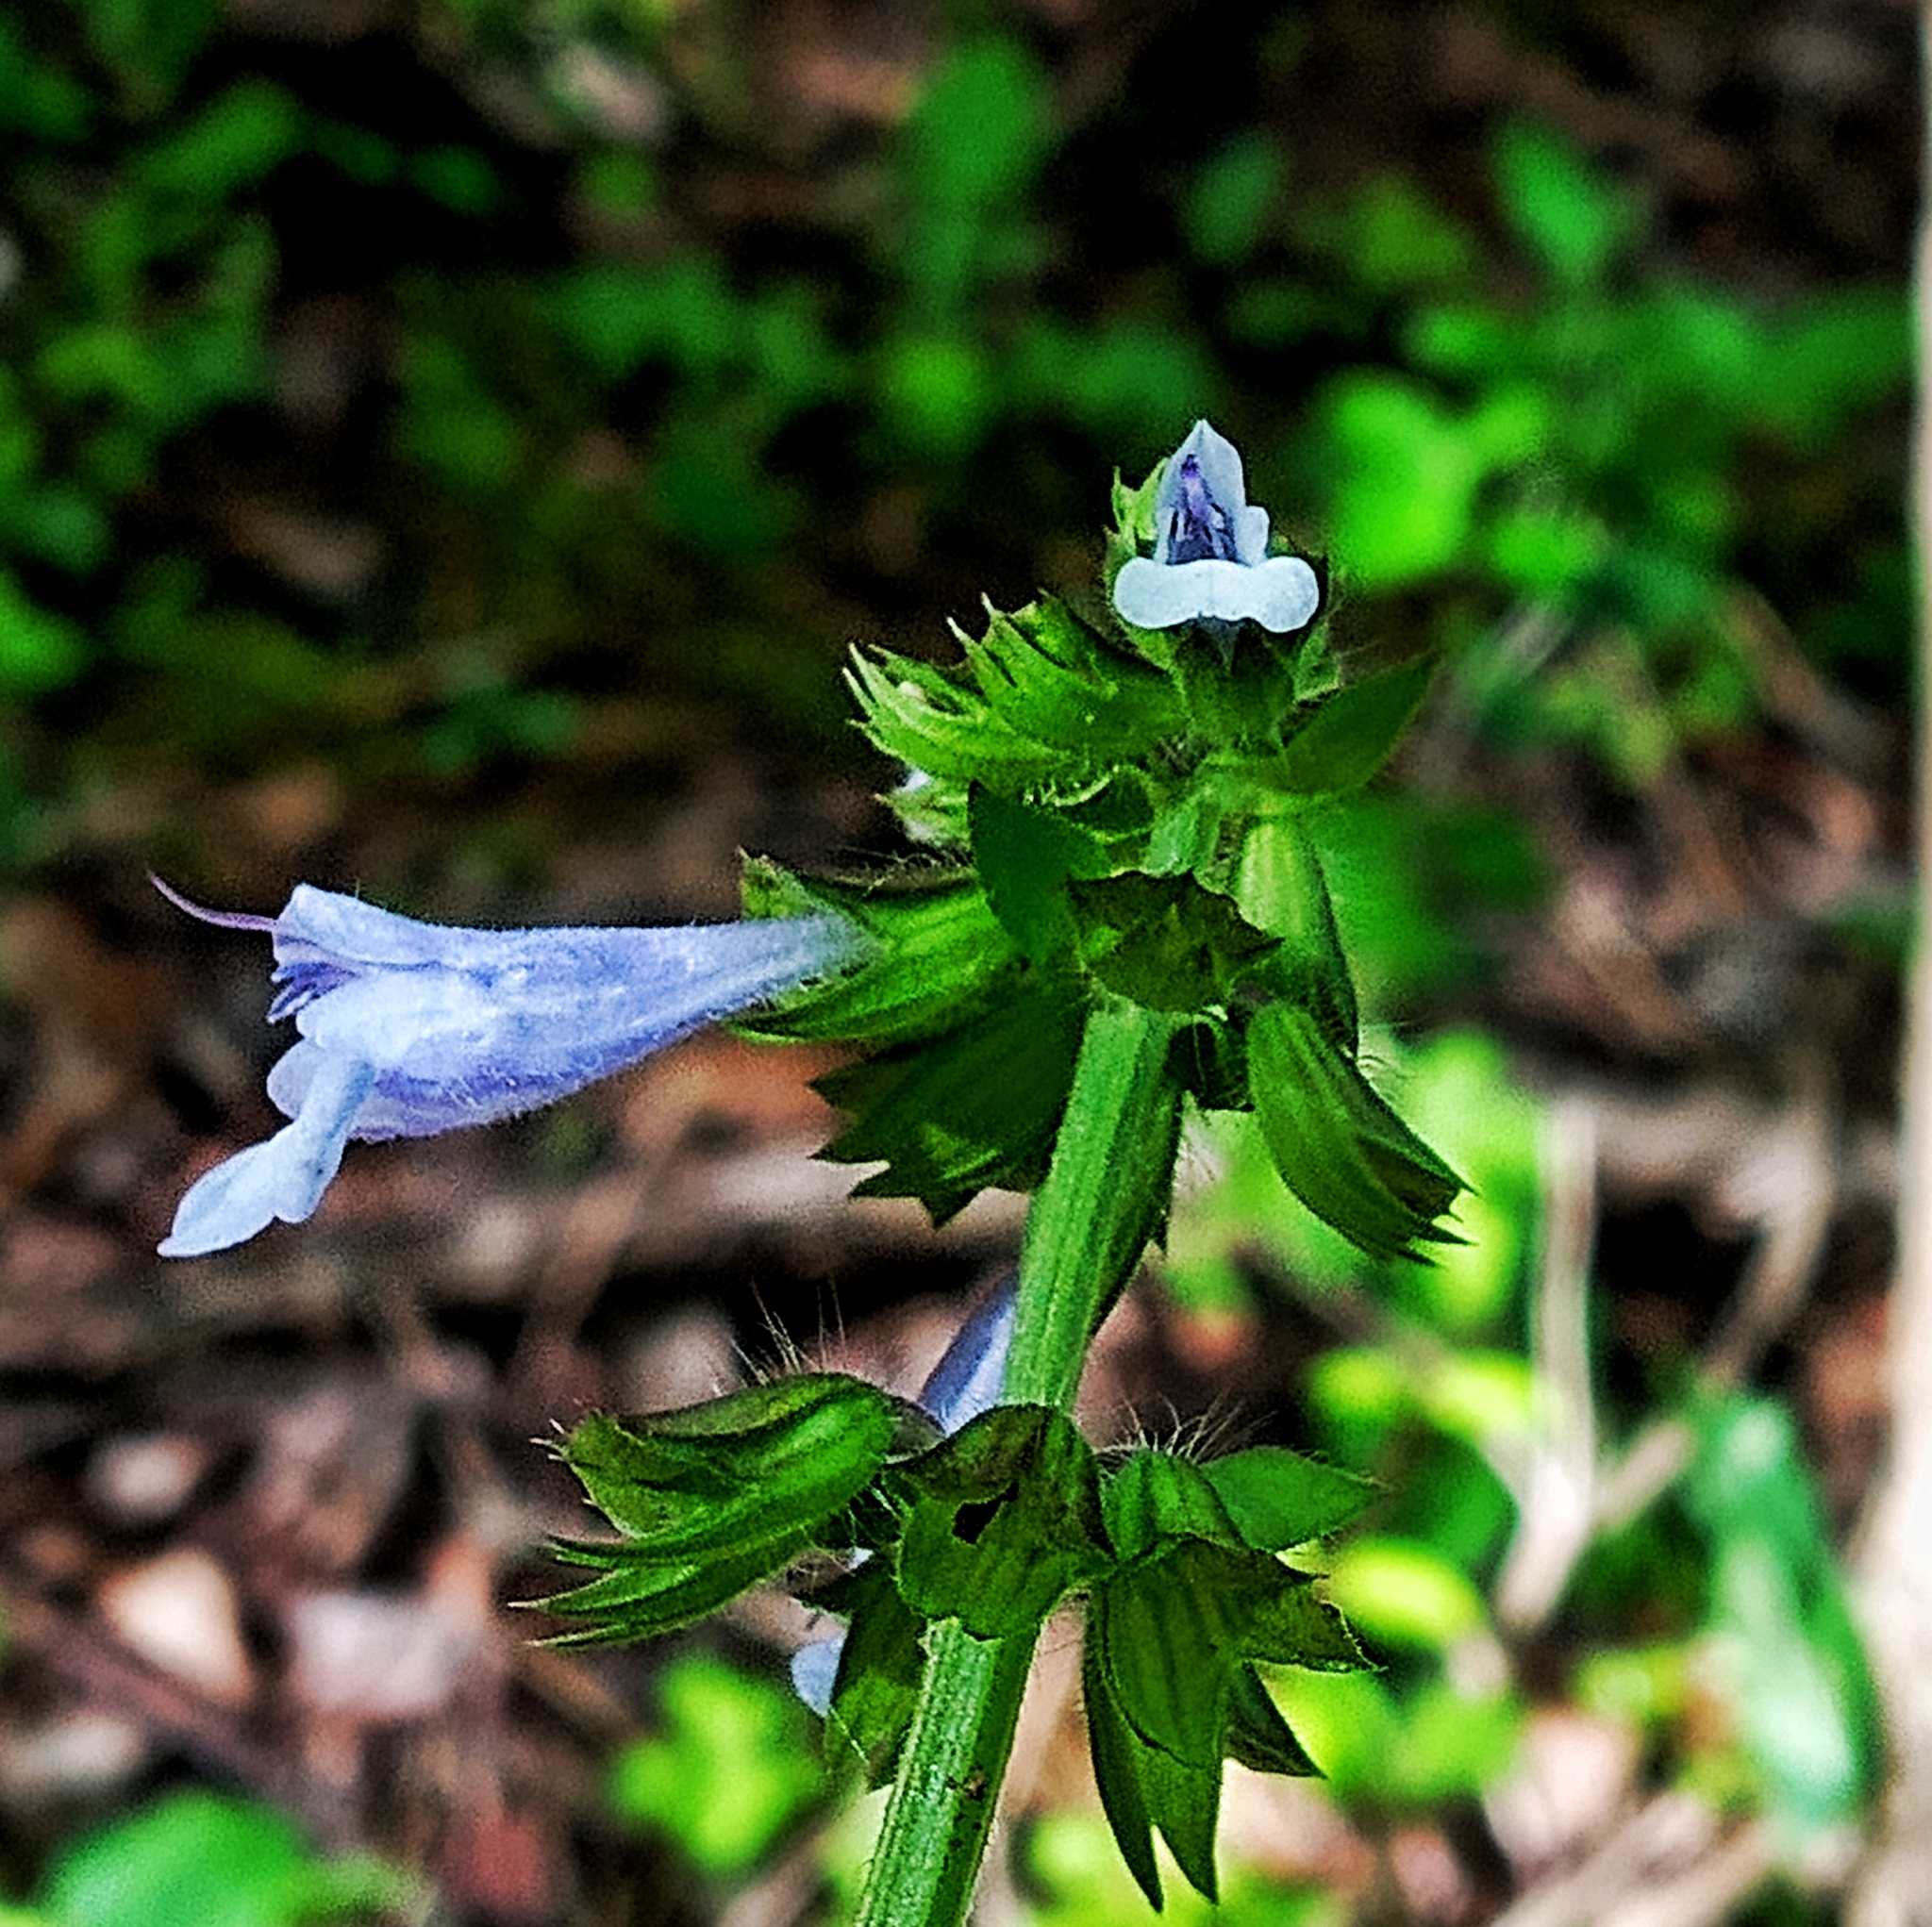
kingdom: Plantae
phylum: Tracheophyta
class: Magnoliopsida
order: Lamiales
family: Lamiaceae
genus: Salvia
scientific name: Salvia lyrata
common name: Cancerweed
